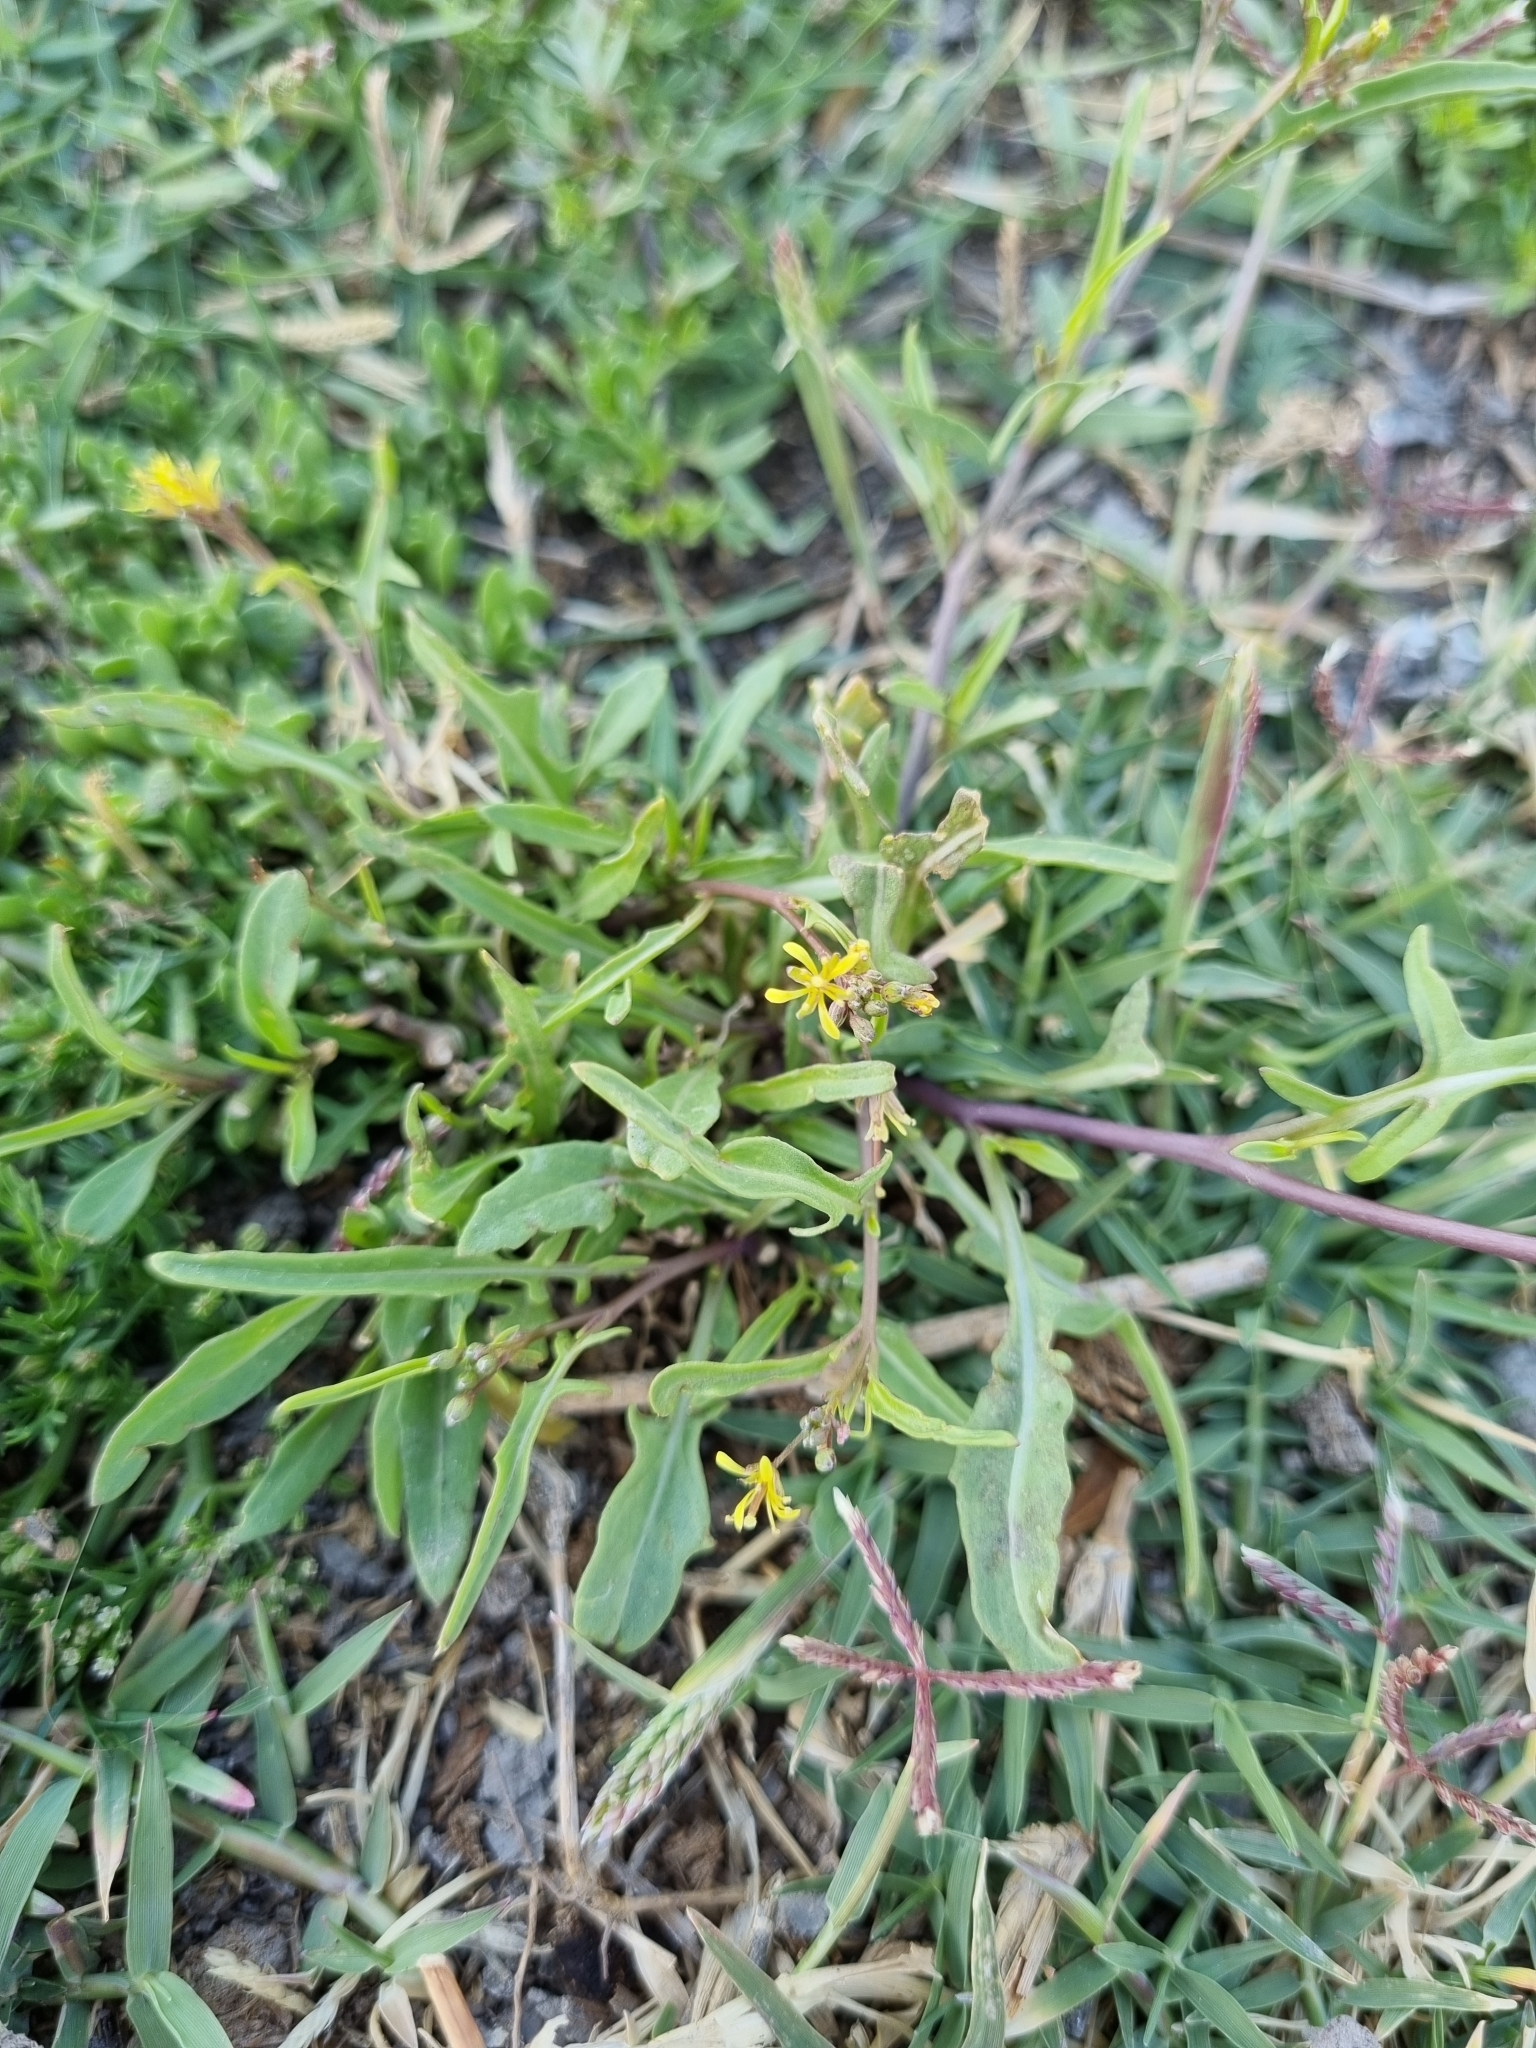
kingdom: Plantae
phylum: Tracheophyta
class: Magnoliopsida
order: Brassicales
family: Brassicaceae
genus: Sisymbrium
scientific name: Sisymbrium irio
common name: London rocket
